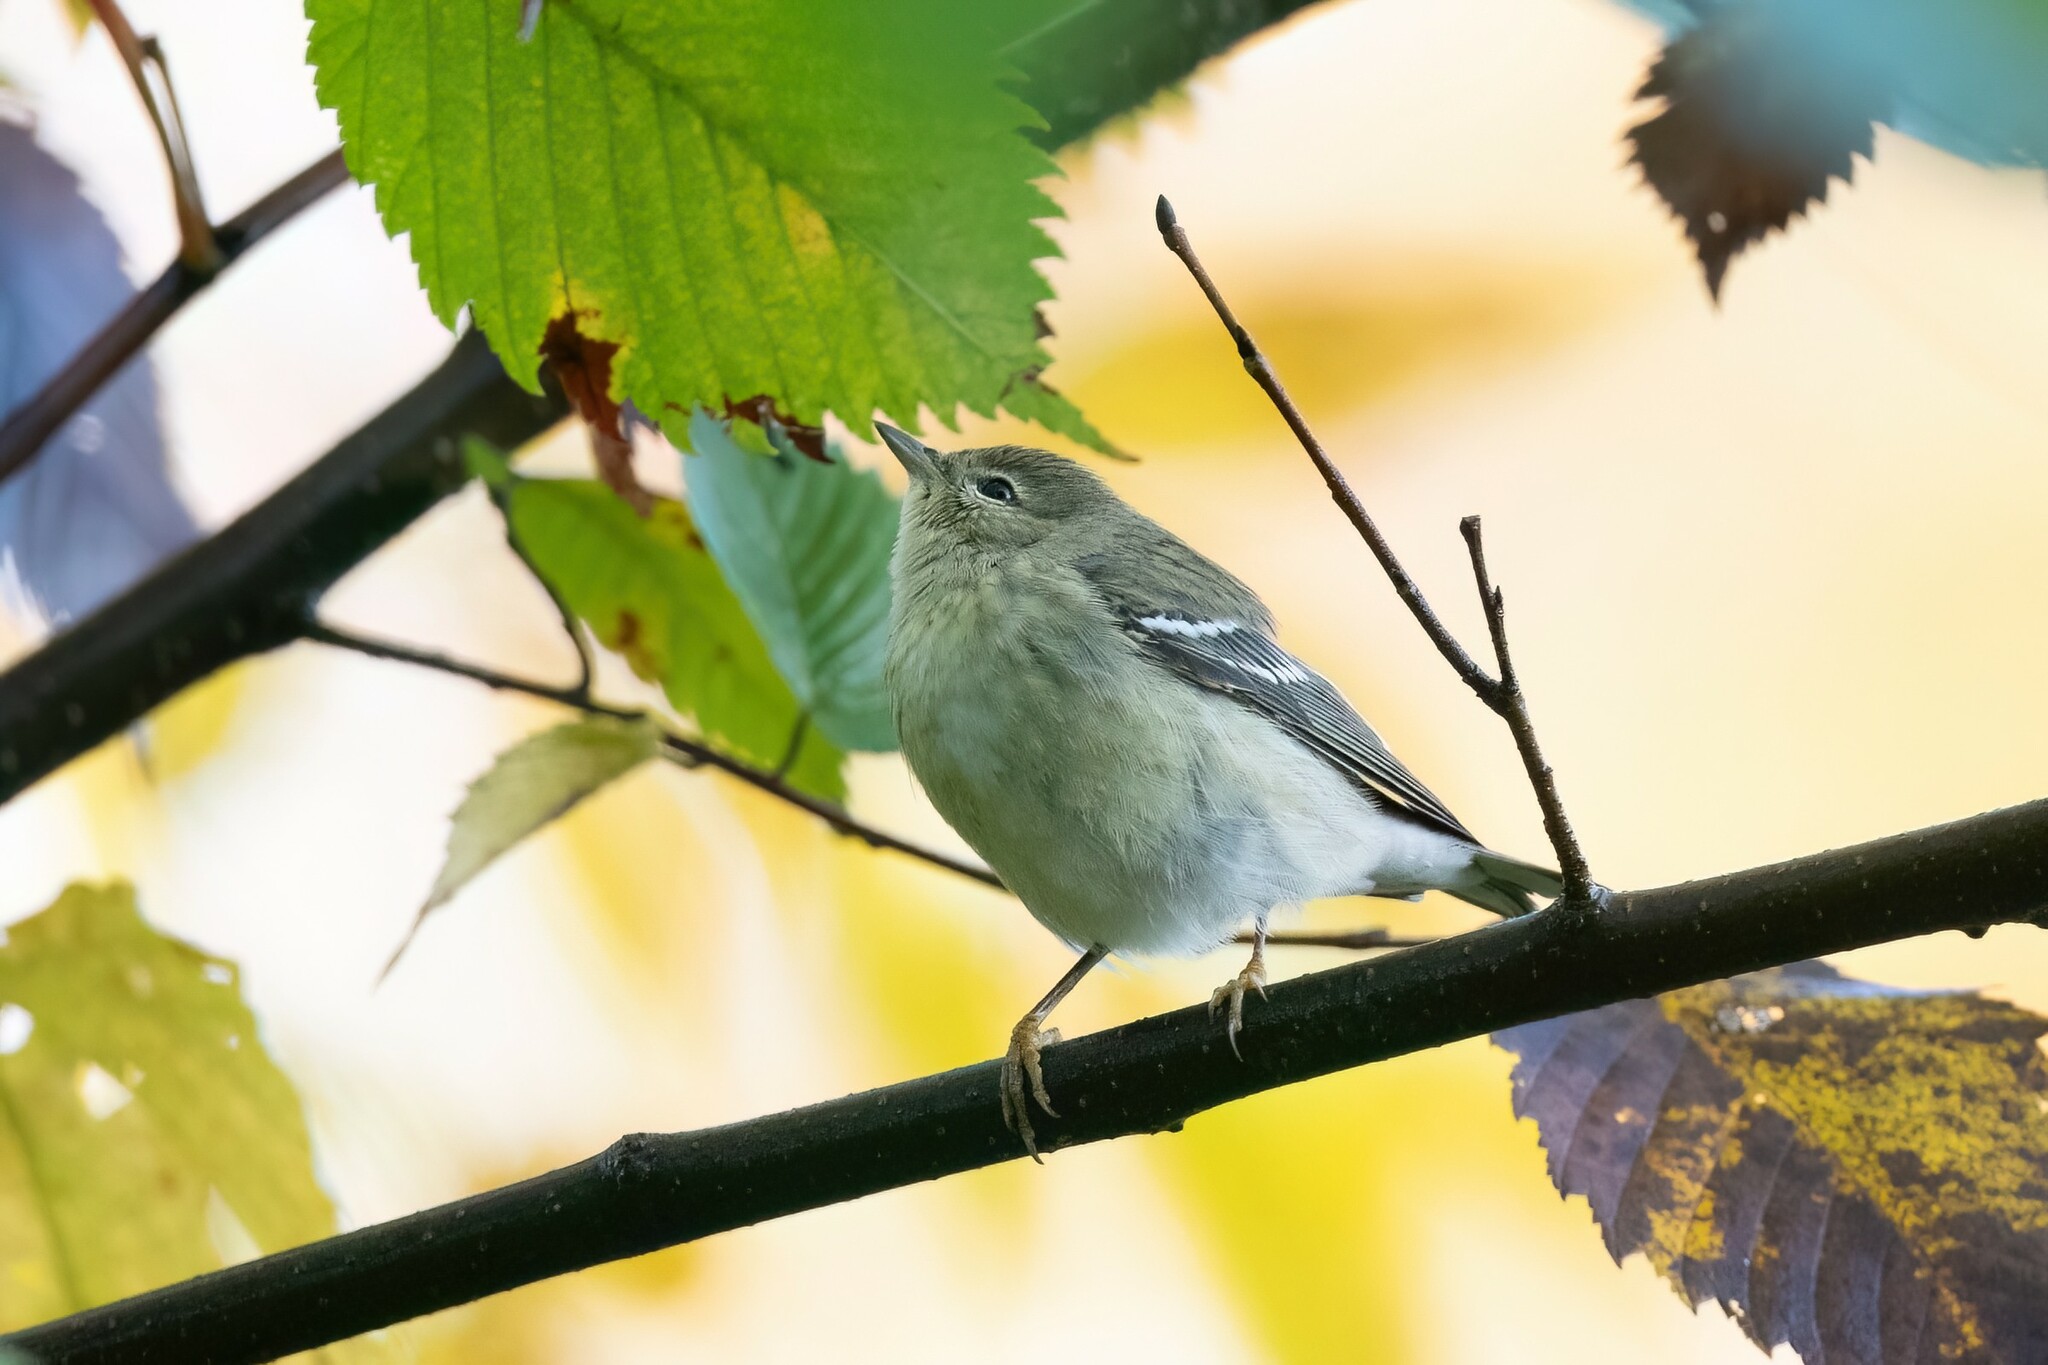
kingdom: Animalia
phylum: Chordata
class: Aves
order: Passeriformes
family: Parulidae
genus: Setophaga
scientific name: Setophaga striata
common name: Blackpoll warbler
